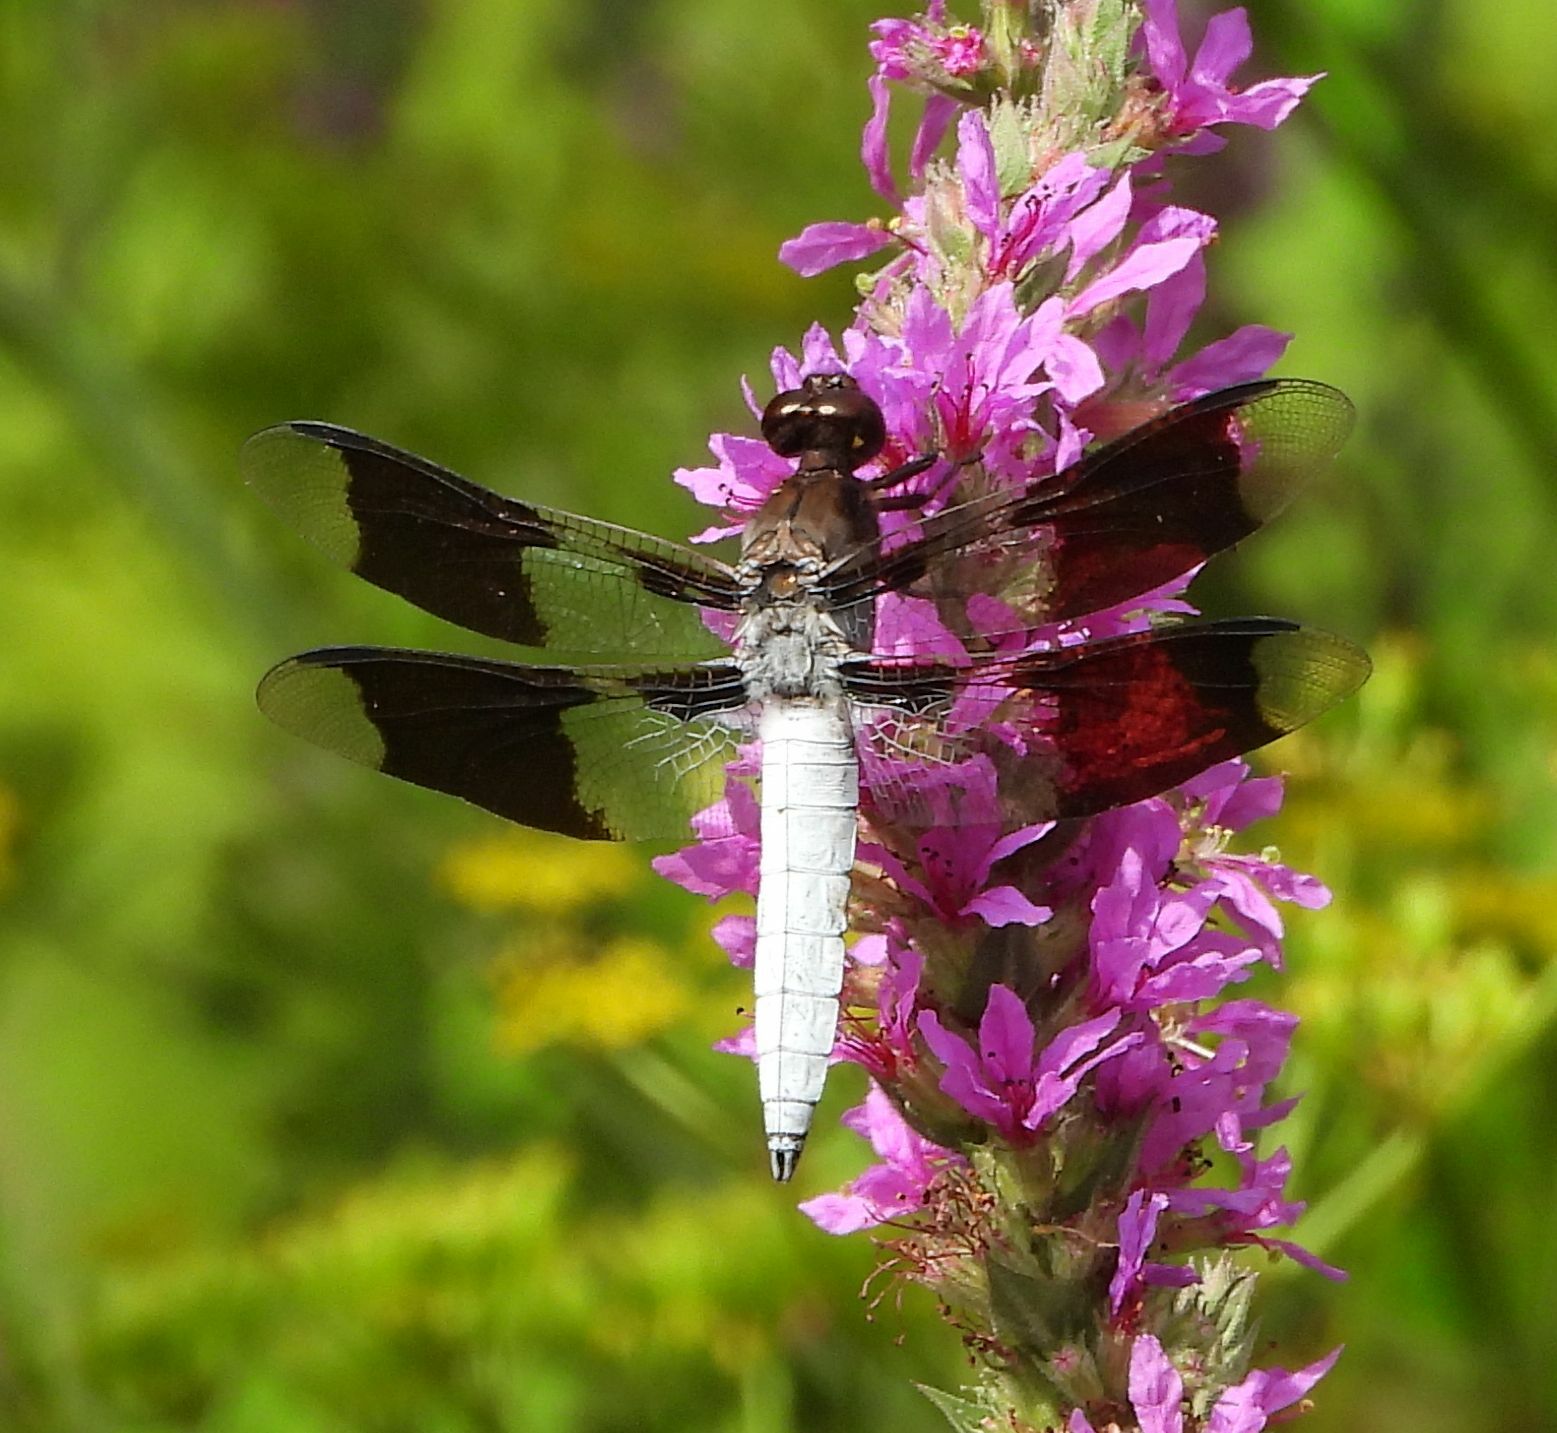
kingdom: Animalia
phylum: Arthropoda
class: Insecta
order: Odonata
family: Libellulidae
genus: Plathemis
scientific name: Plathemis lydia
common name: Common whitetail
